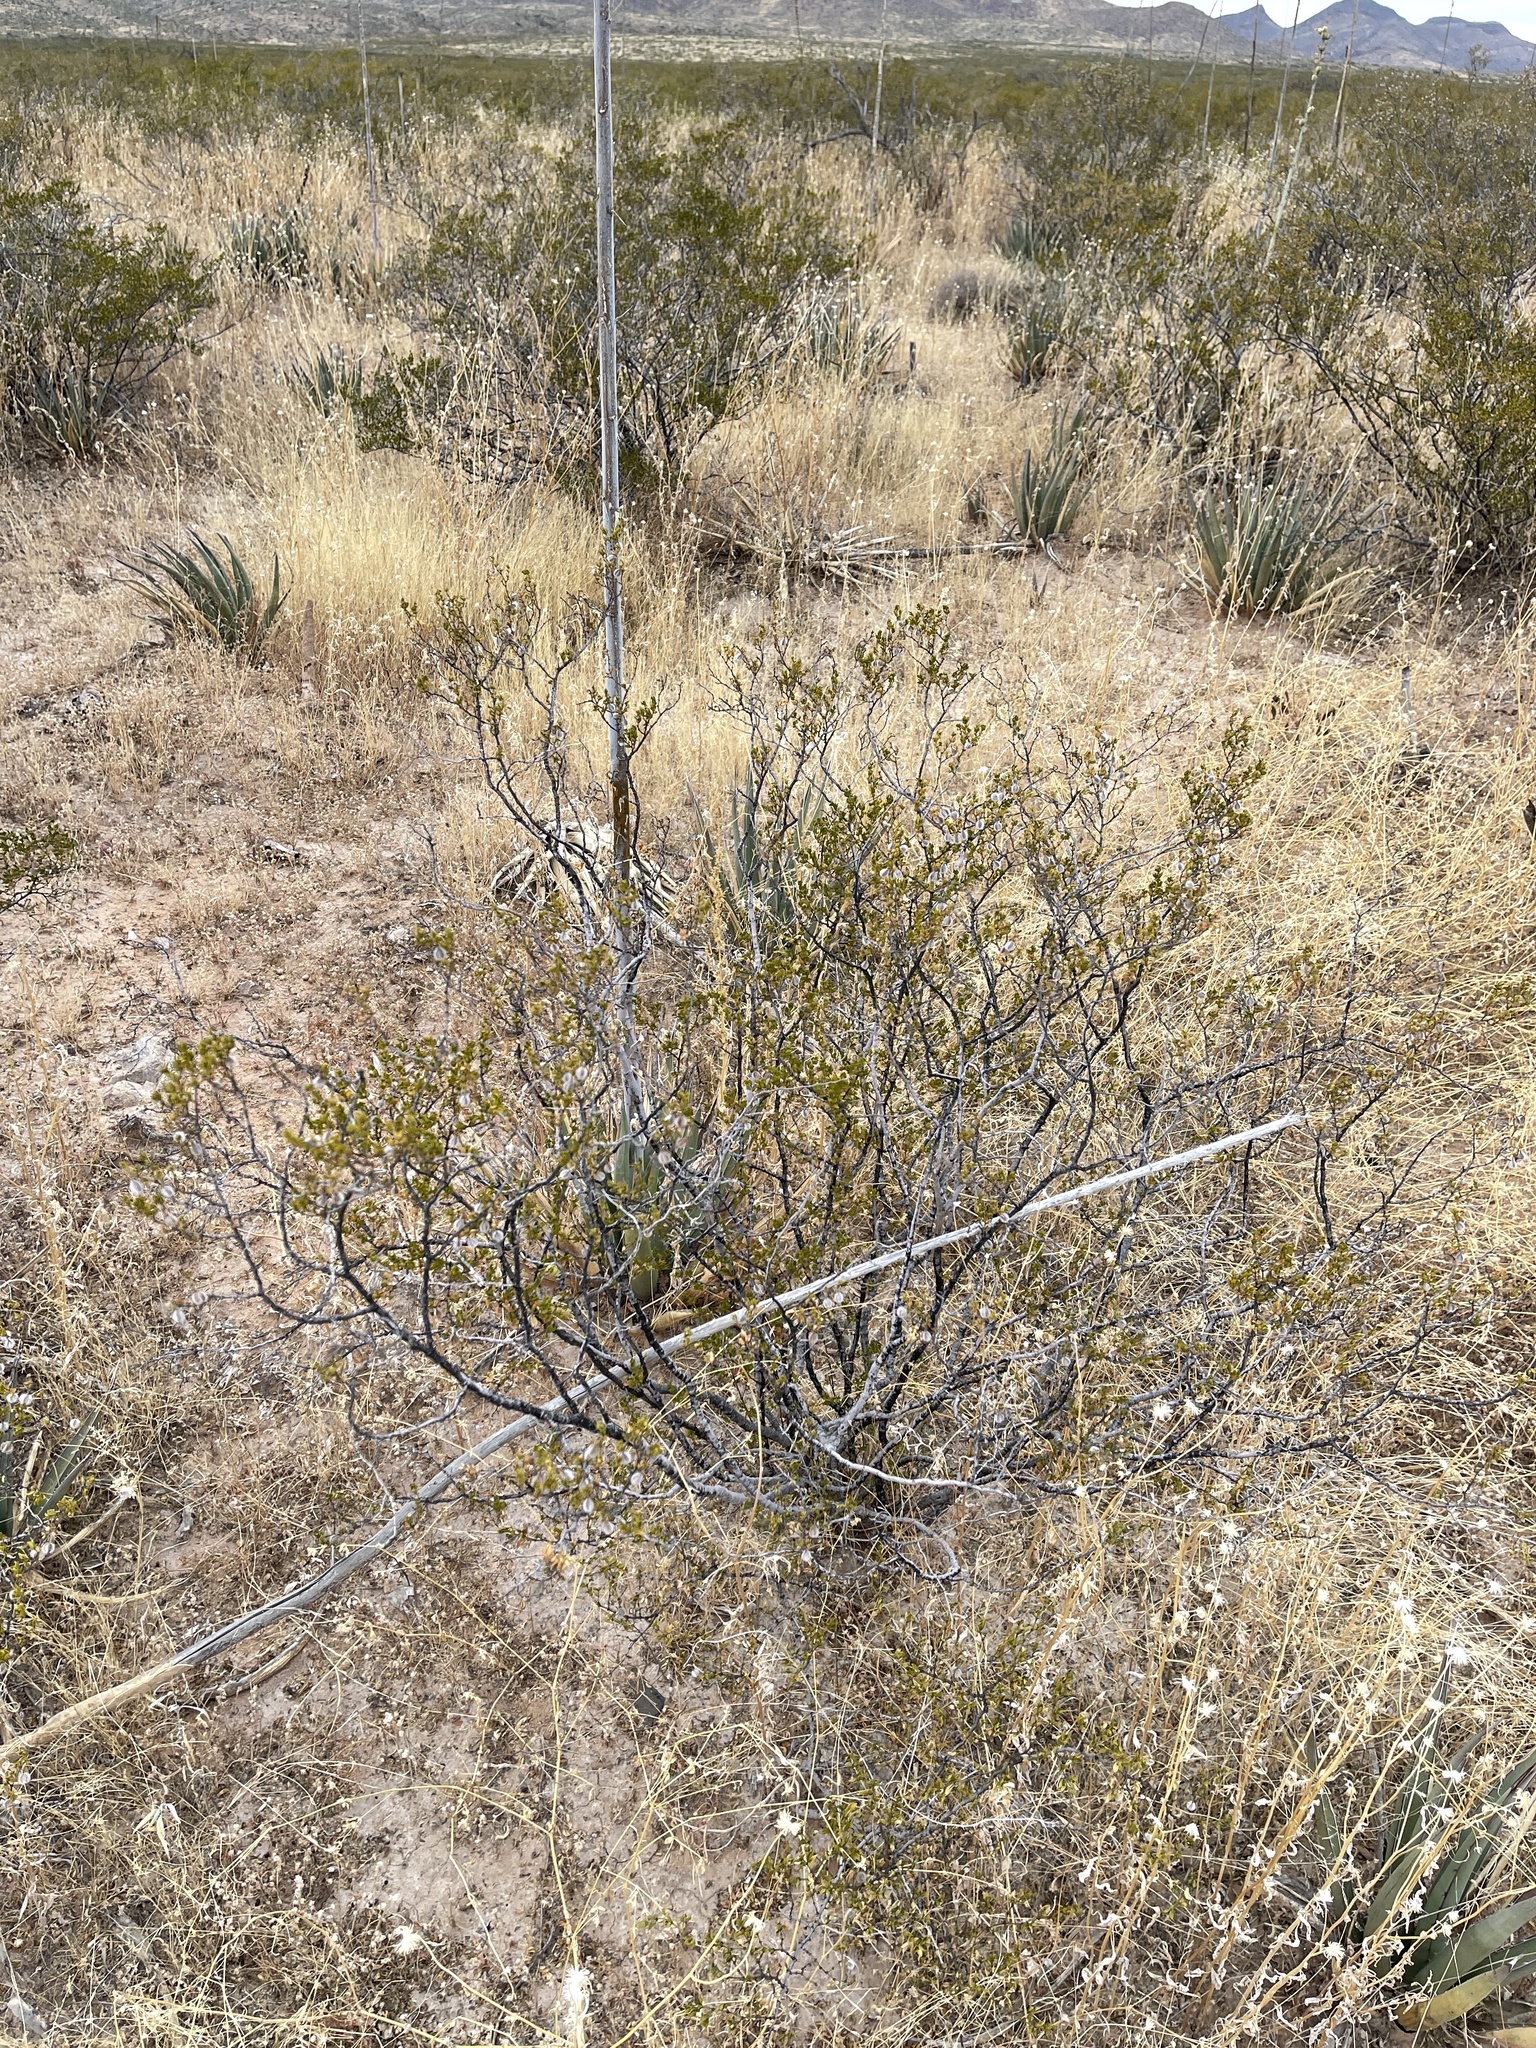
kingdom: Plantae
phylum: Tracheophyta
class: Magnoliopsida
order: Zygophyllales
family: Zygophyllaceae
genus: Larrea
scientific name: Larrea tridentata
